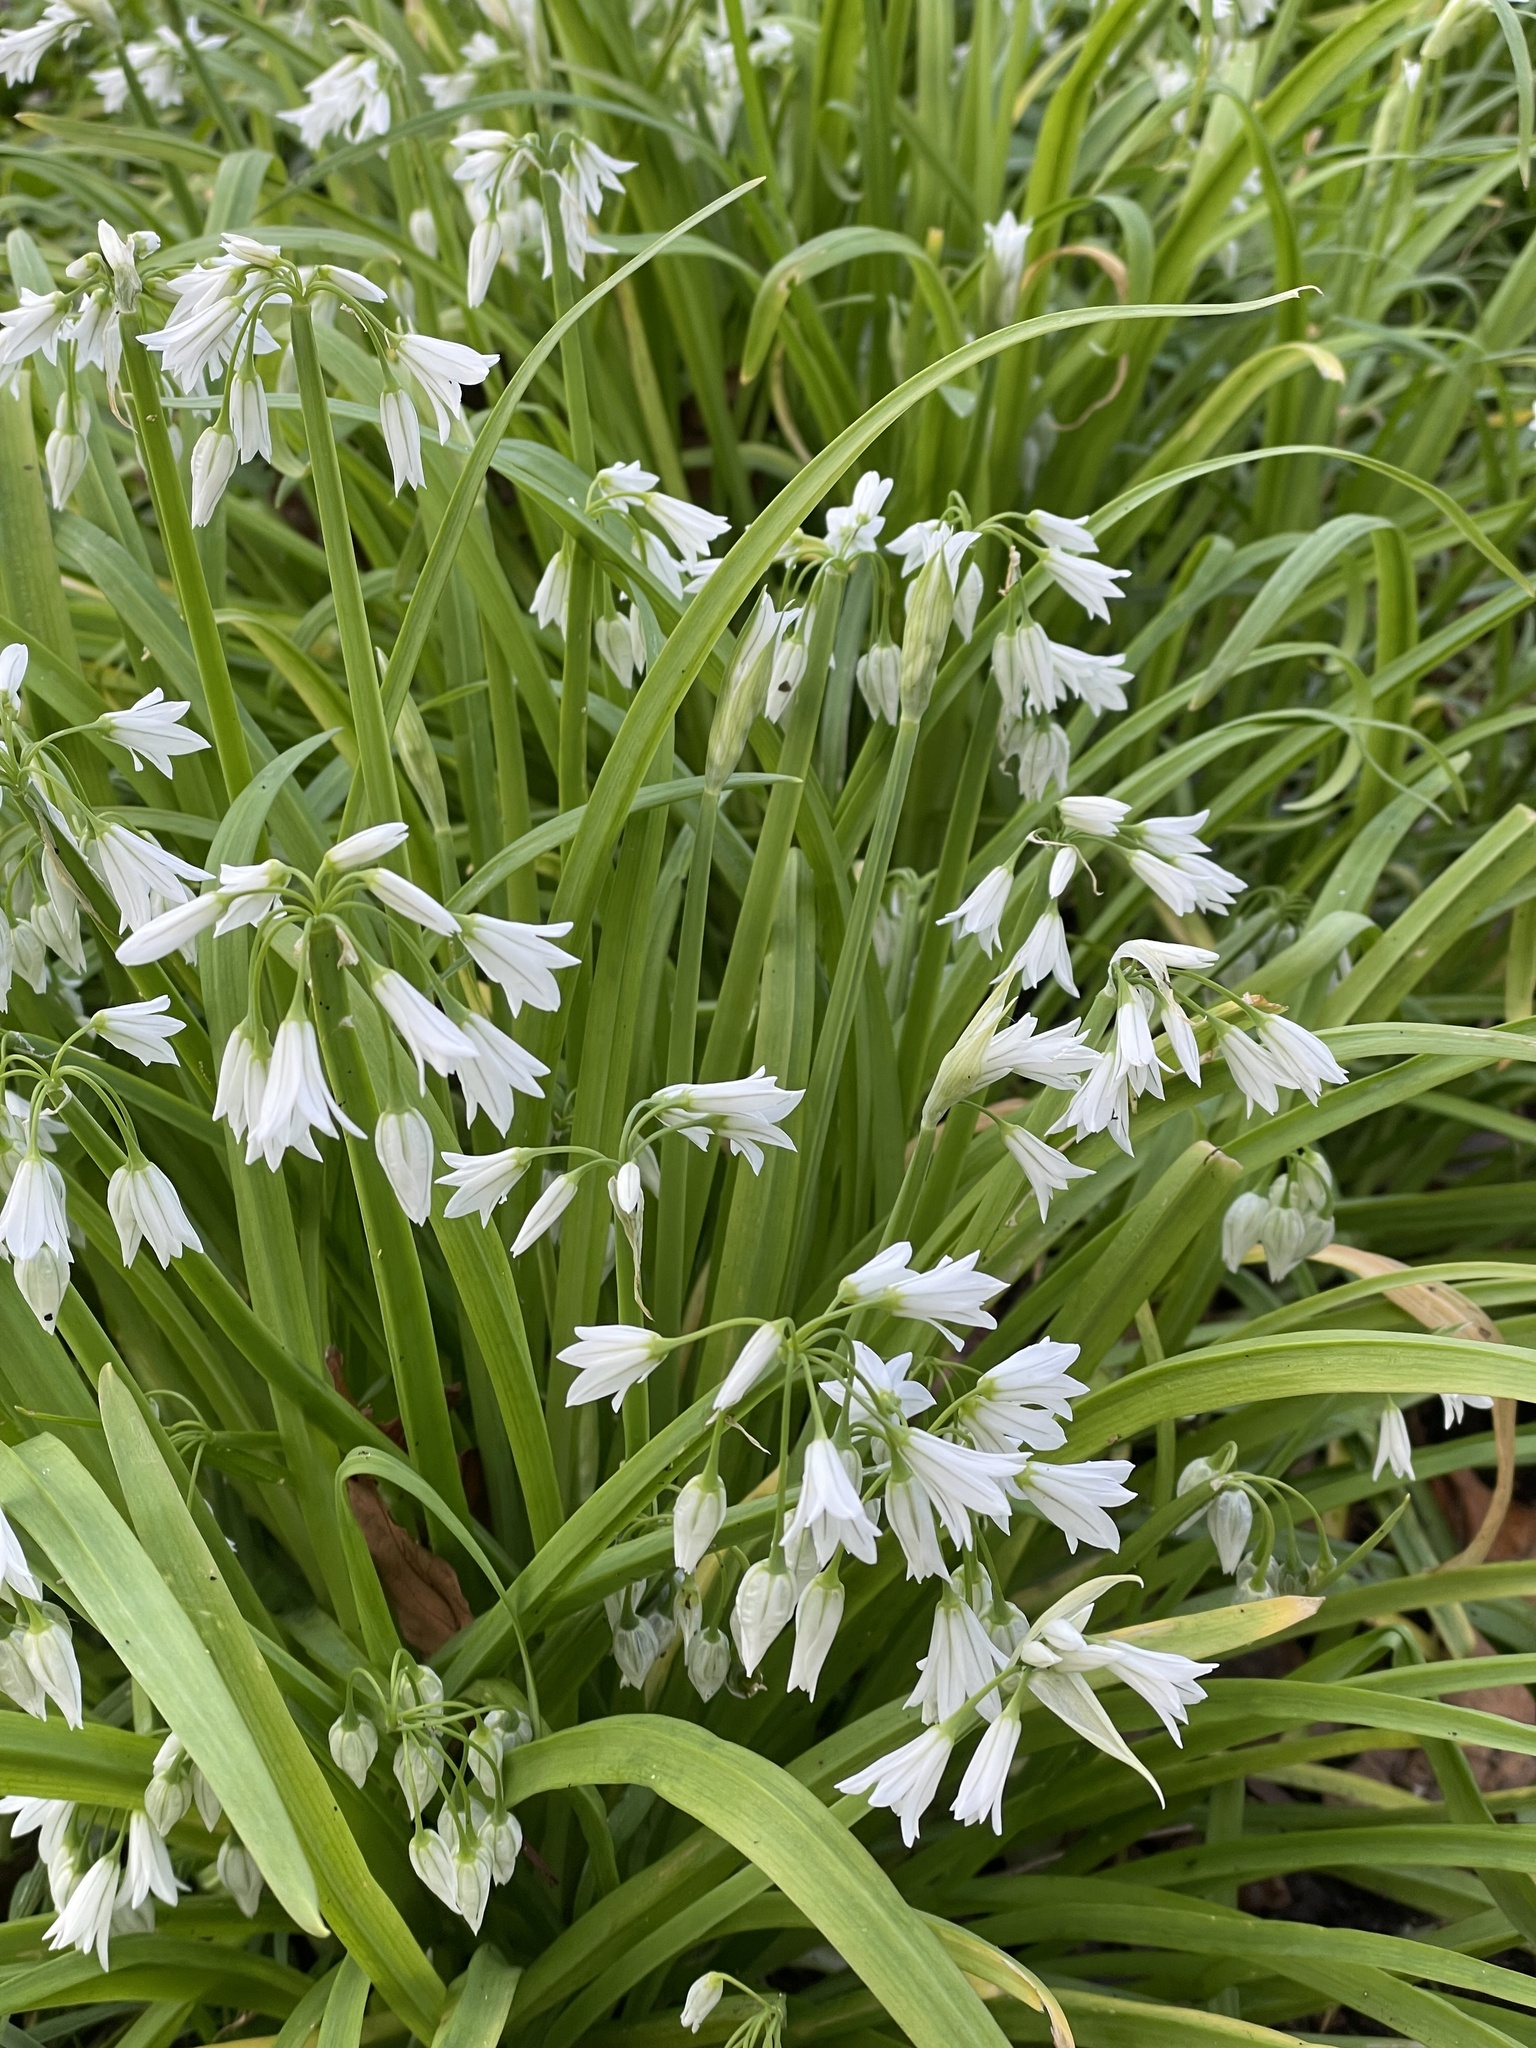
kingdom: Plantae
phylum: Tracheophyta
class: Liliopsida
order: Asparagales
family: Amaryllidaceae
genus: Allium
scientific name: Allium triquetrum
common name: Three-cornered garlic
